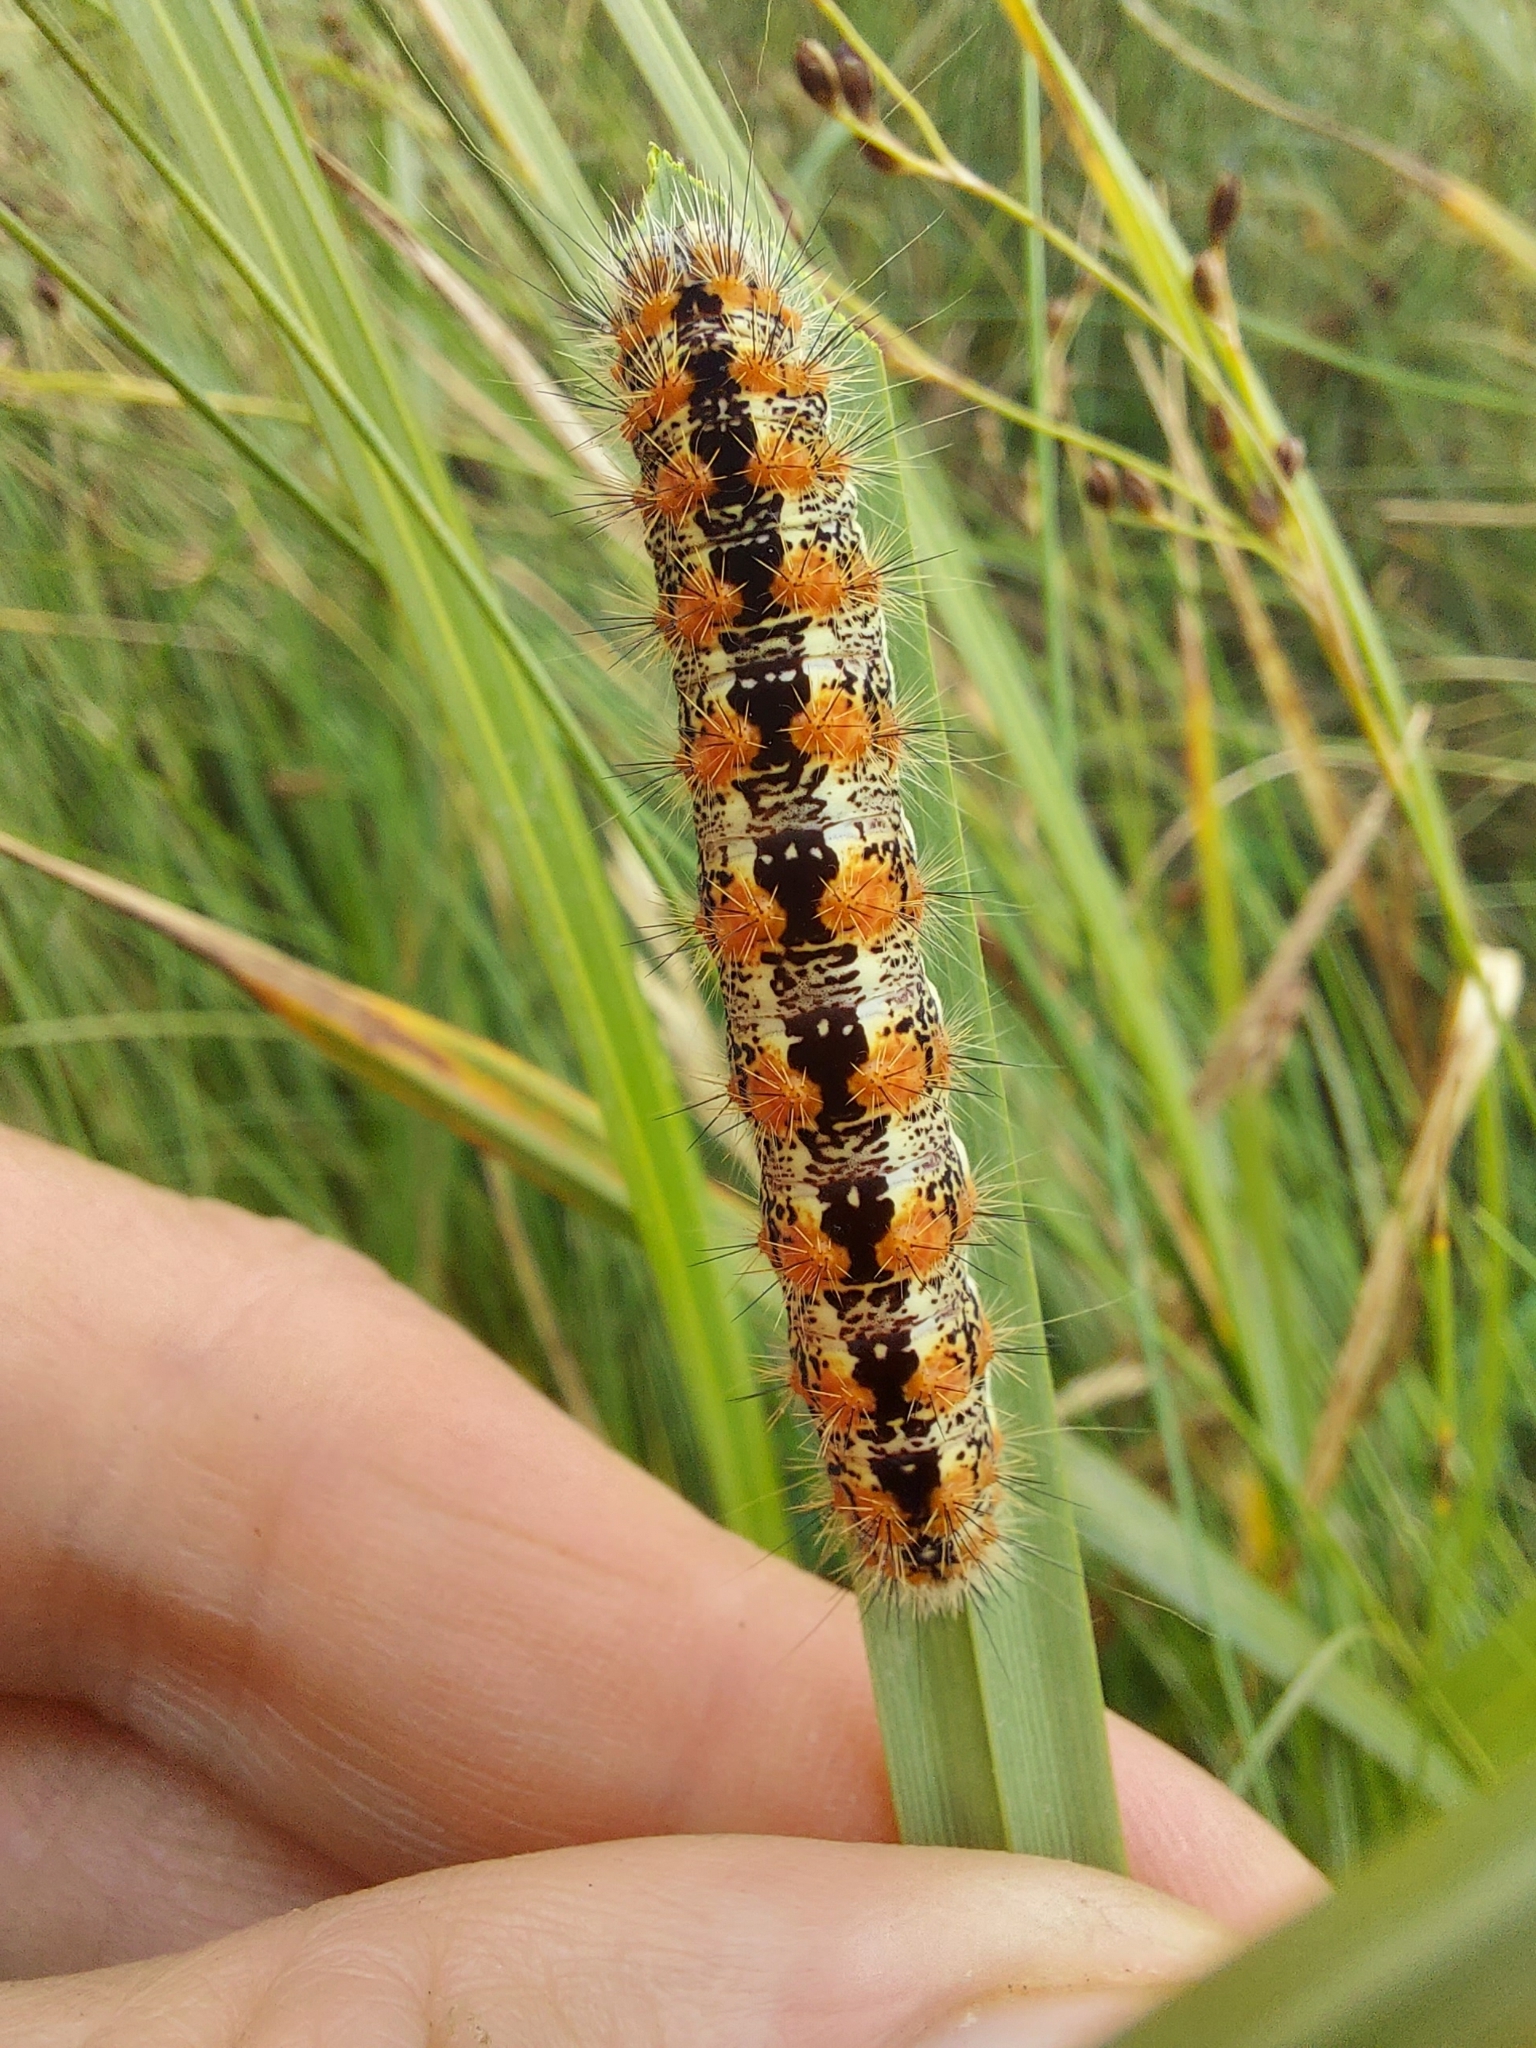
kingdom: Animalia
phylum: Arthropoda
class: Insecta
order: Lepidoptera
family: Noctuidae
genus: Acronicta
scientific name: Acronicta insularis
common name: Henry's marsh moth
